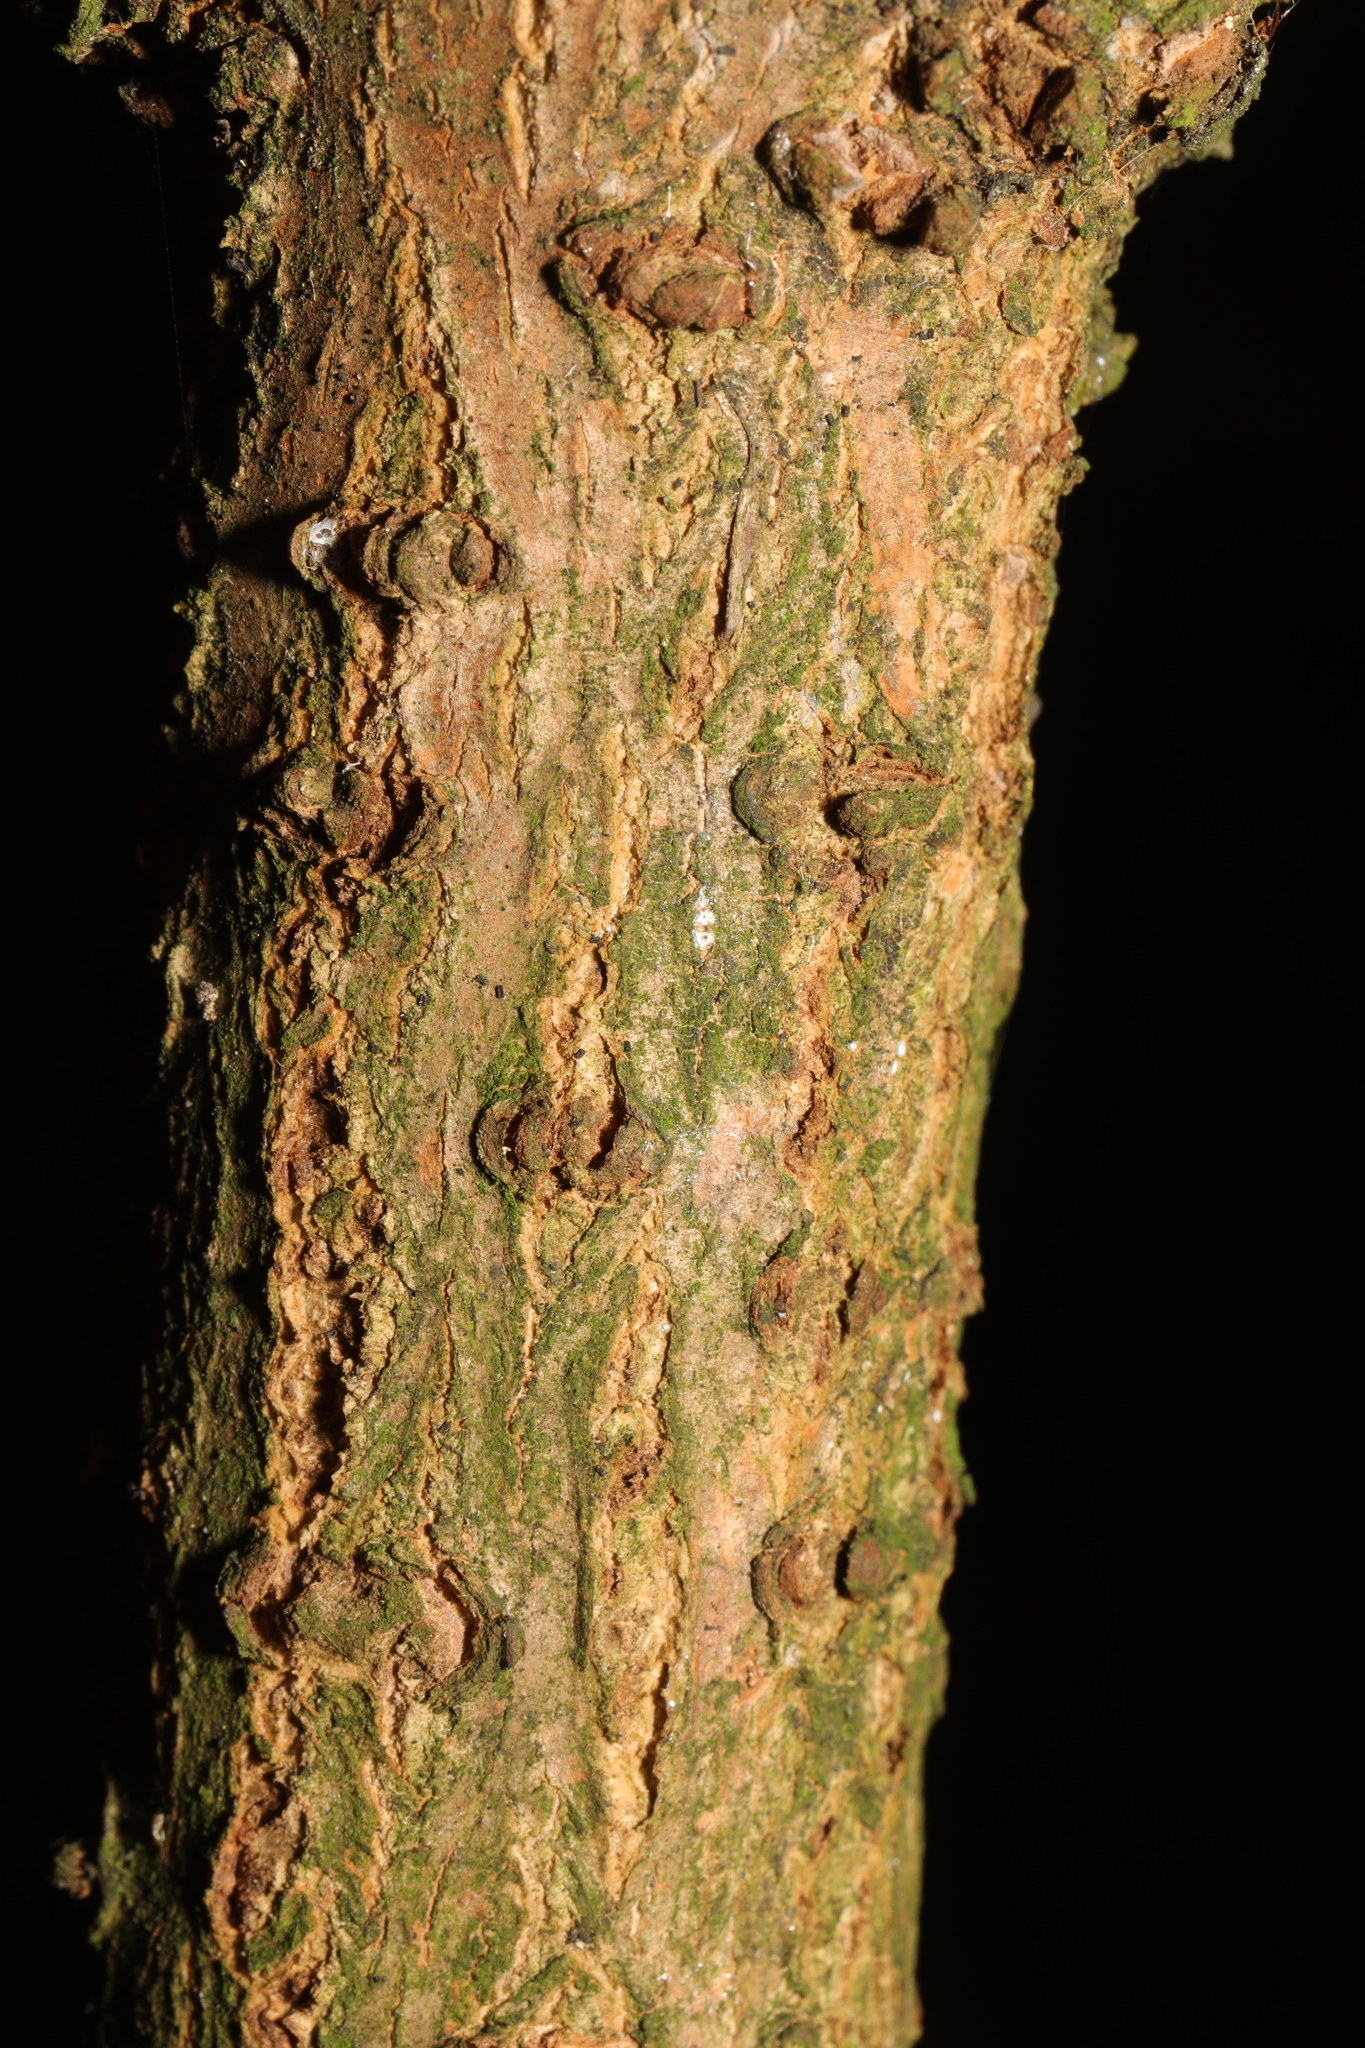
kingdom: Plantae
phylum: Tracheophyta
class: Magnoliopsida
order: Dipsacales
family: Viburnaceae
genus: Sambucus
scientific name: Sambucus nigra
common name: Elder
